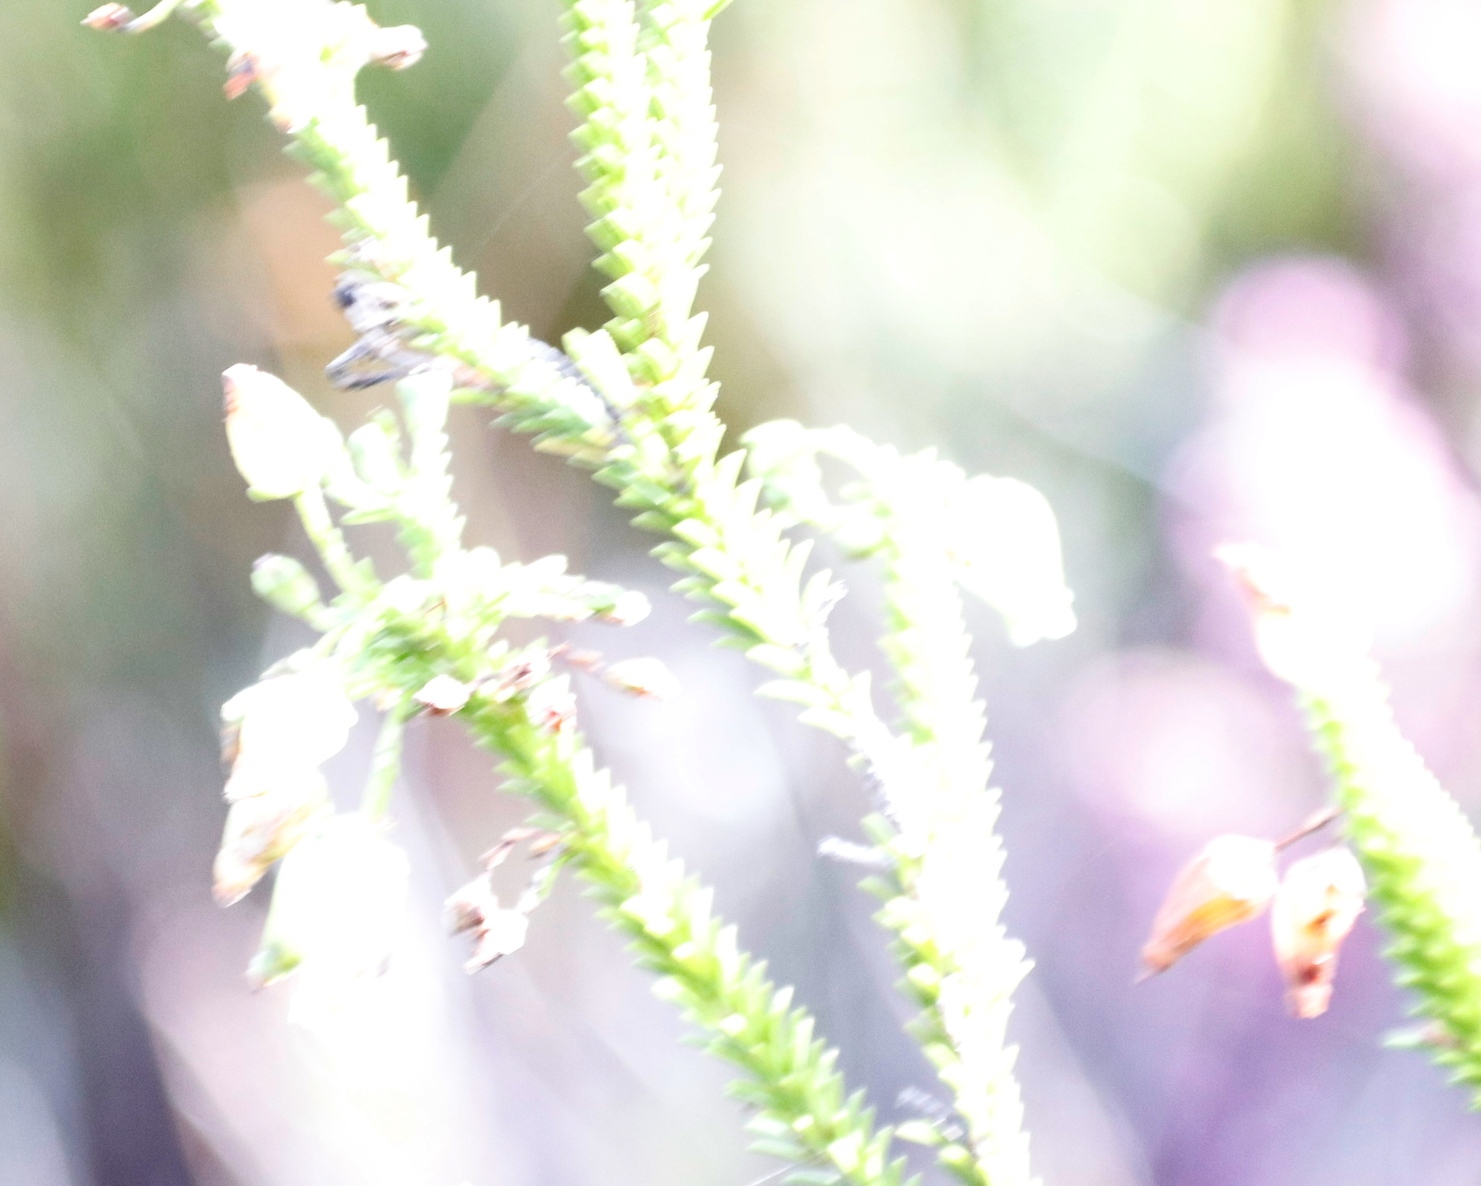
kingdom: Plantae
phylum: Tracheophyta
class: Magnoliopsida
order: Ericales
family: Ericaceae
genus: Erica
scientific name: Erica urna-viridis
